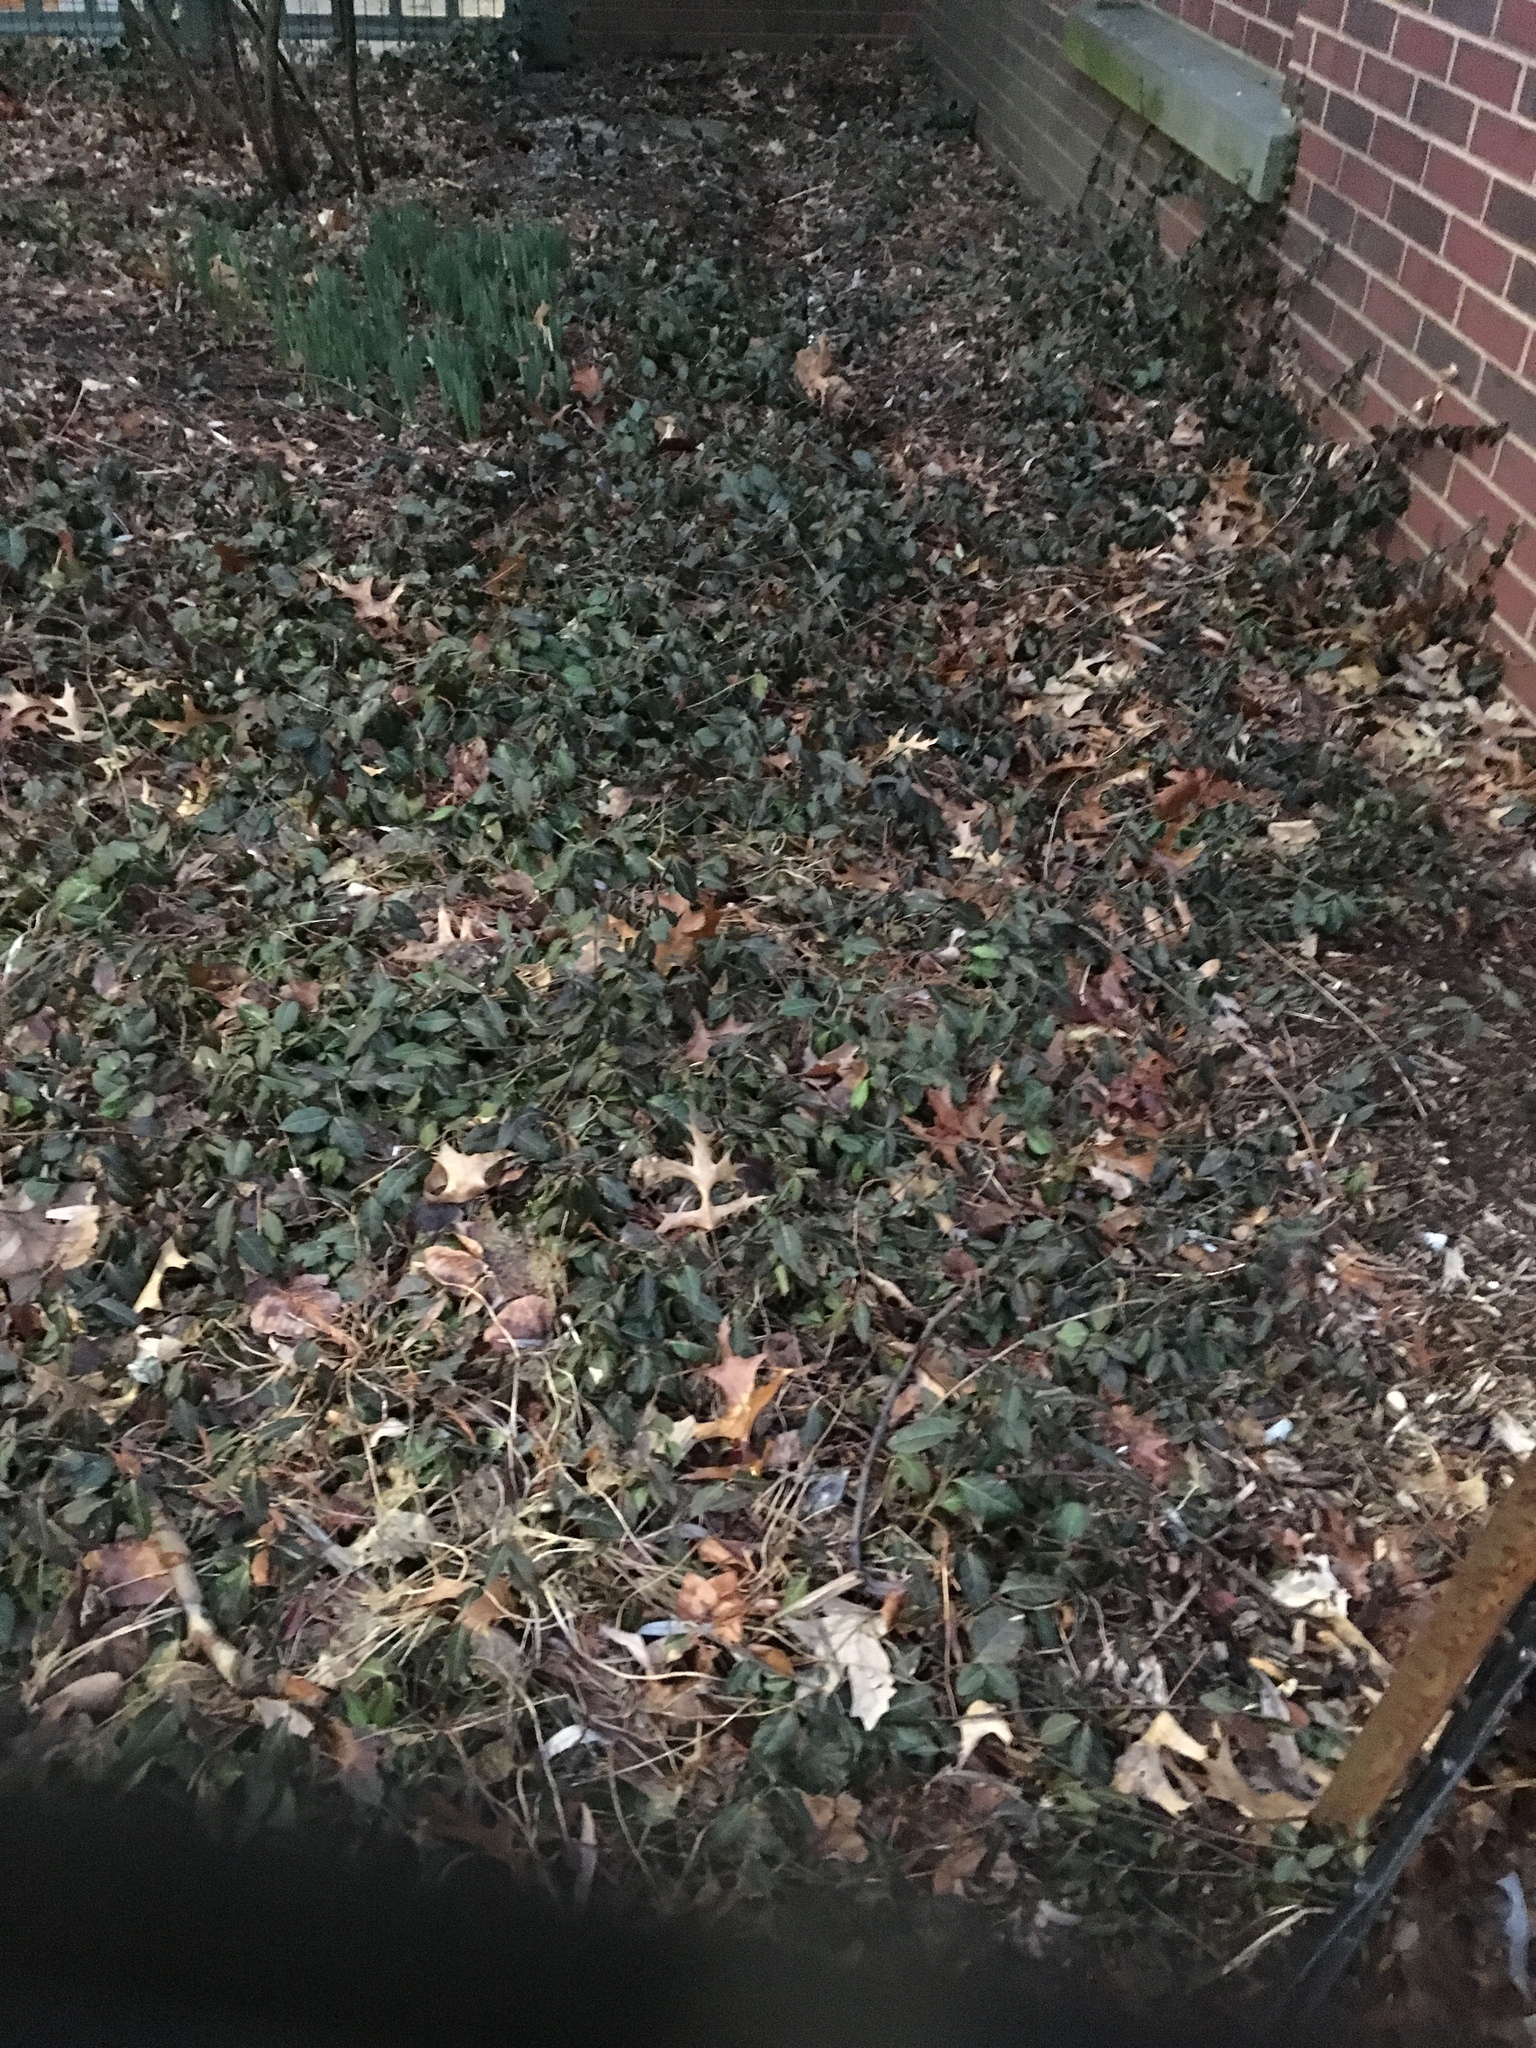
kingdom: Plantae
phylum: Tracheophyta
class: Magnoliopsida
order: Celastrales
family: Celastraceae
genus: Euonymus
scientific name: Euonymus fortunei
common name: Climbing euonymus
